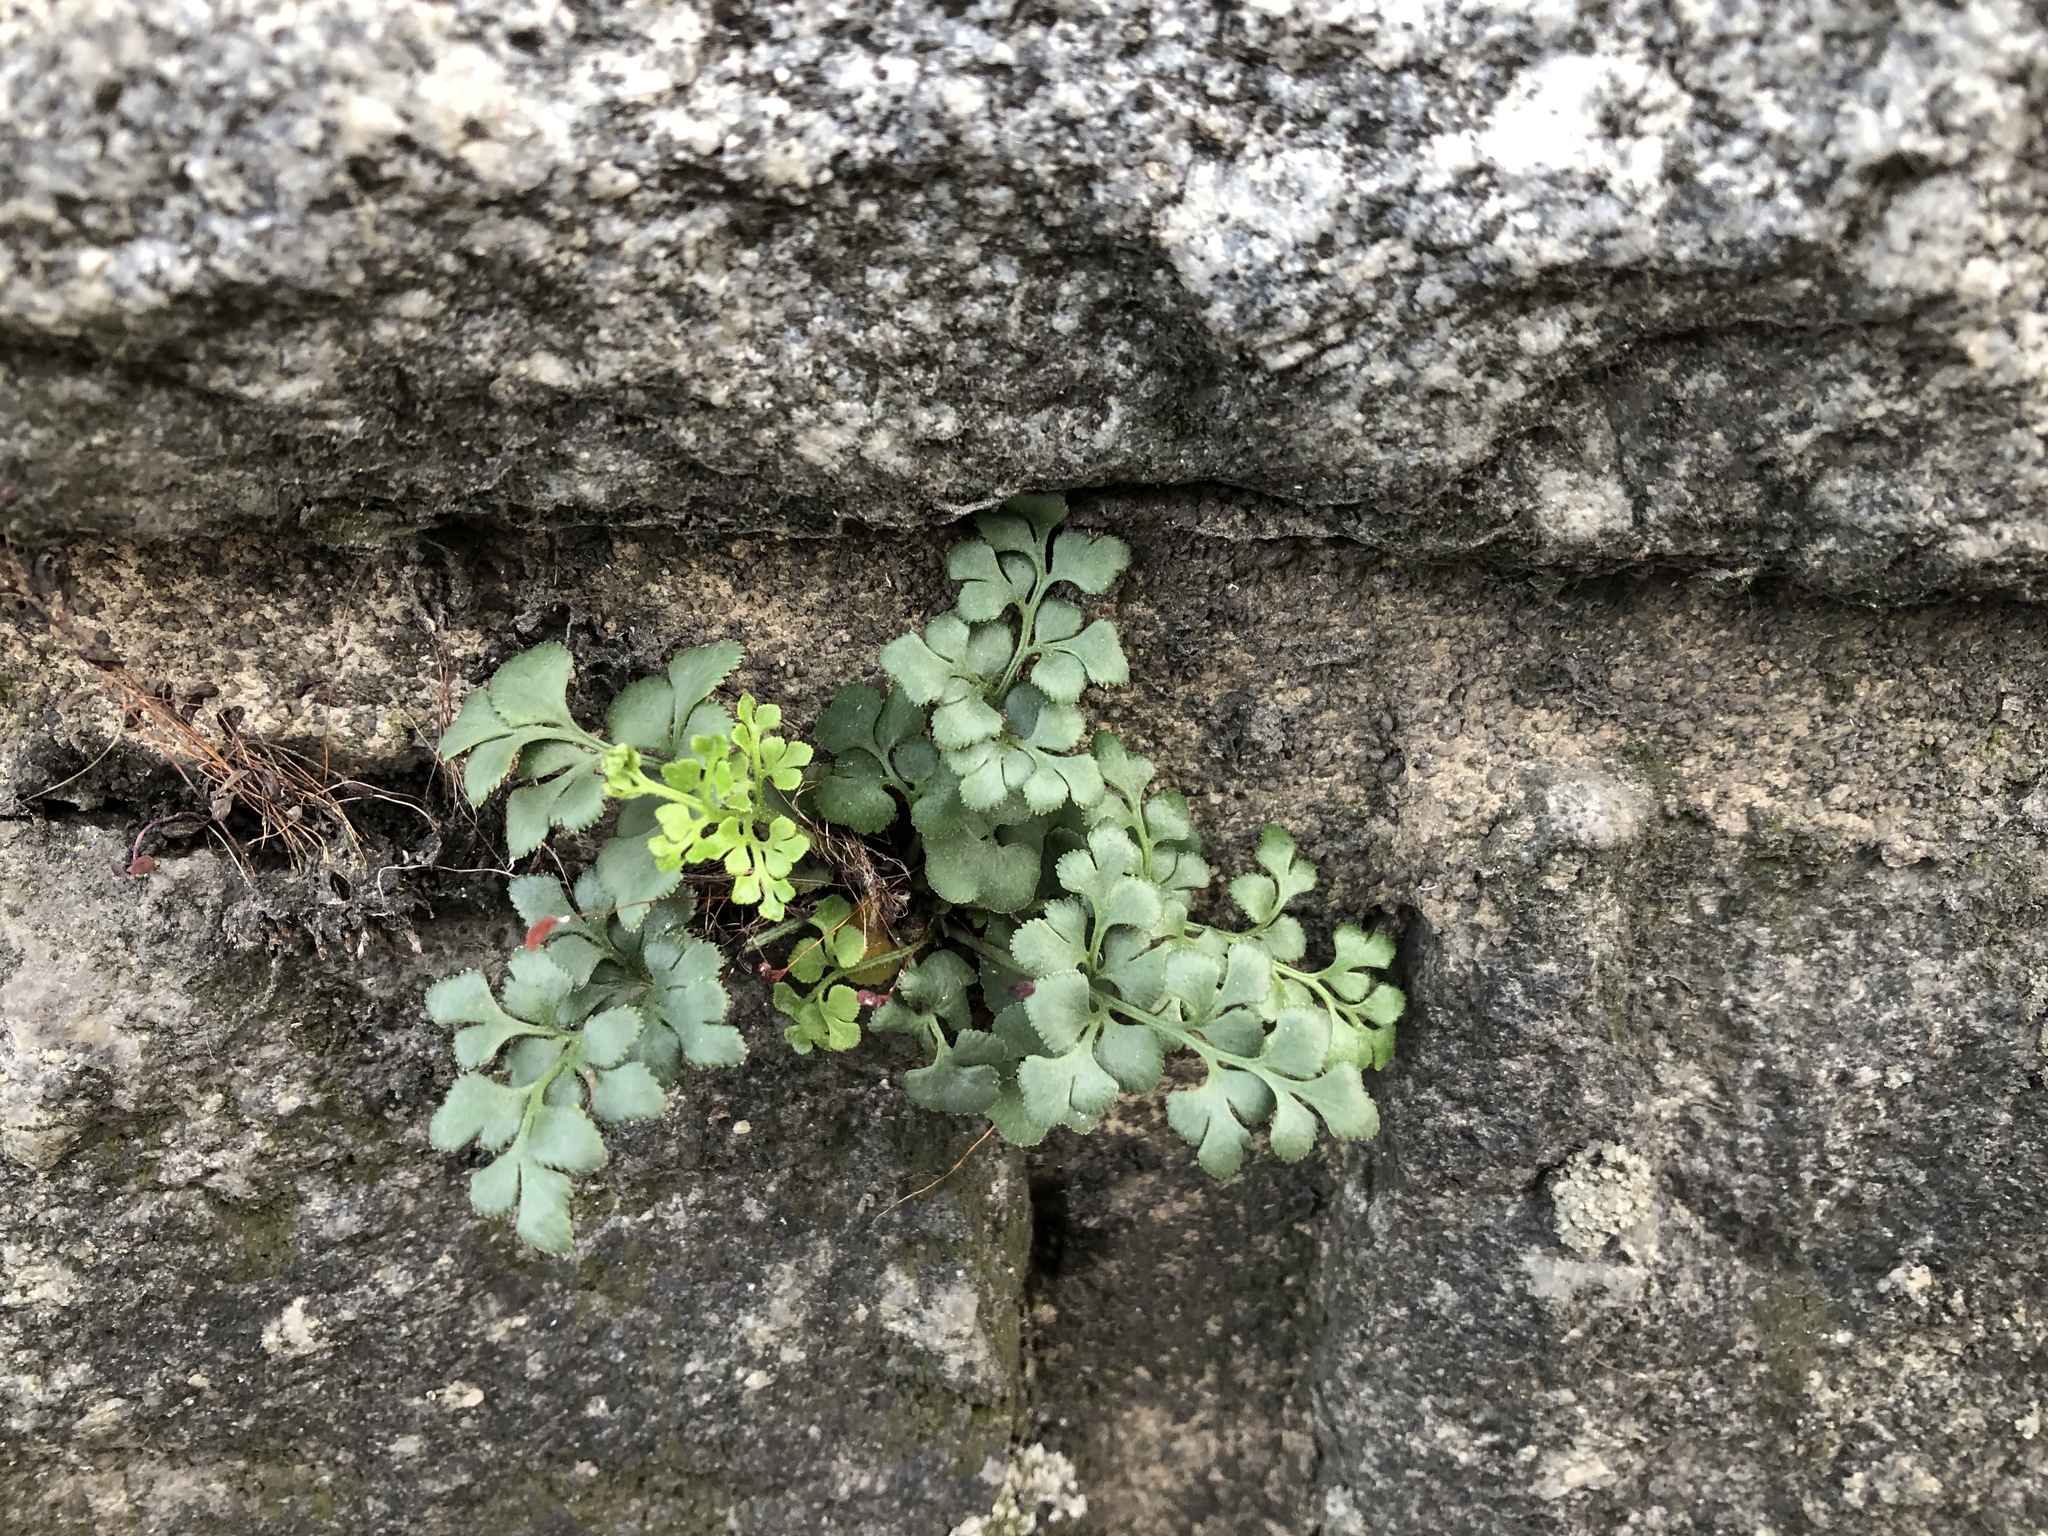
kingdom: Plantae
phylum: Tracheophyta
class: Polypodiopsida
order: Polypodiales
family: Aspleniaceae
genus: Asplenium
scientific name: Asplenium ruta-muraria
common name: Wall-rue
